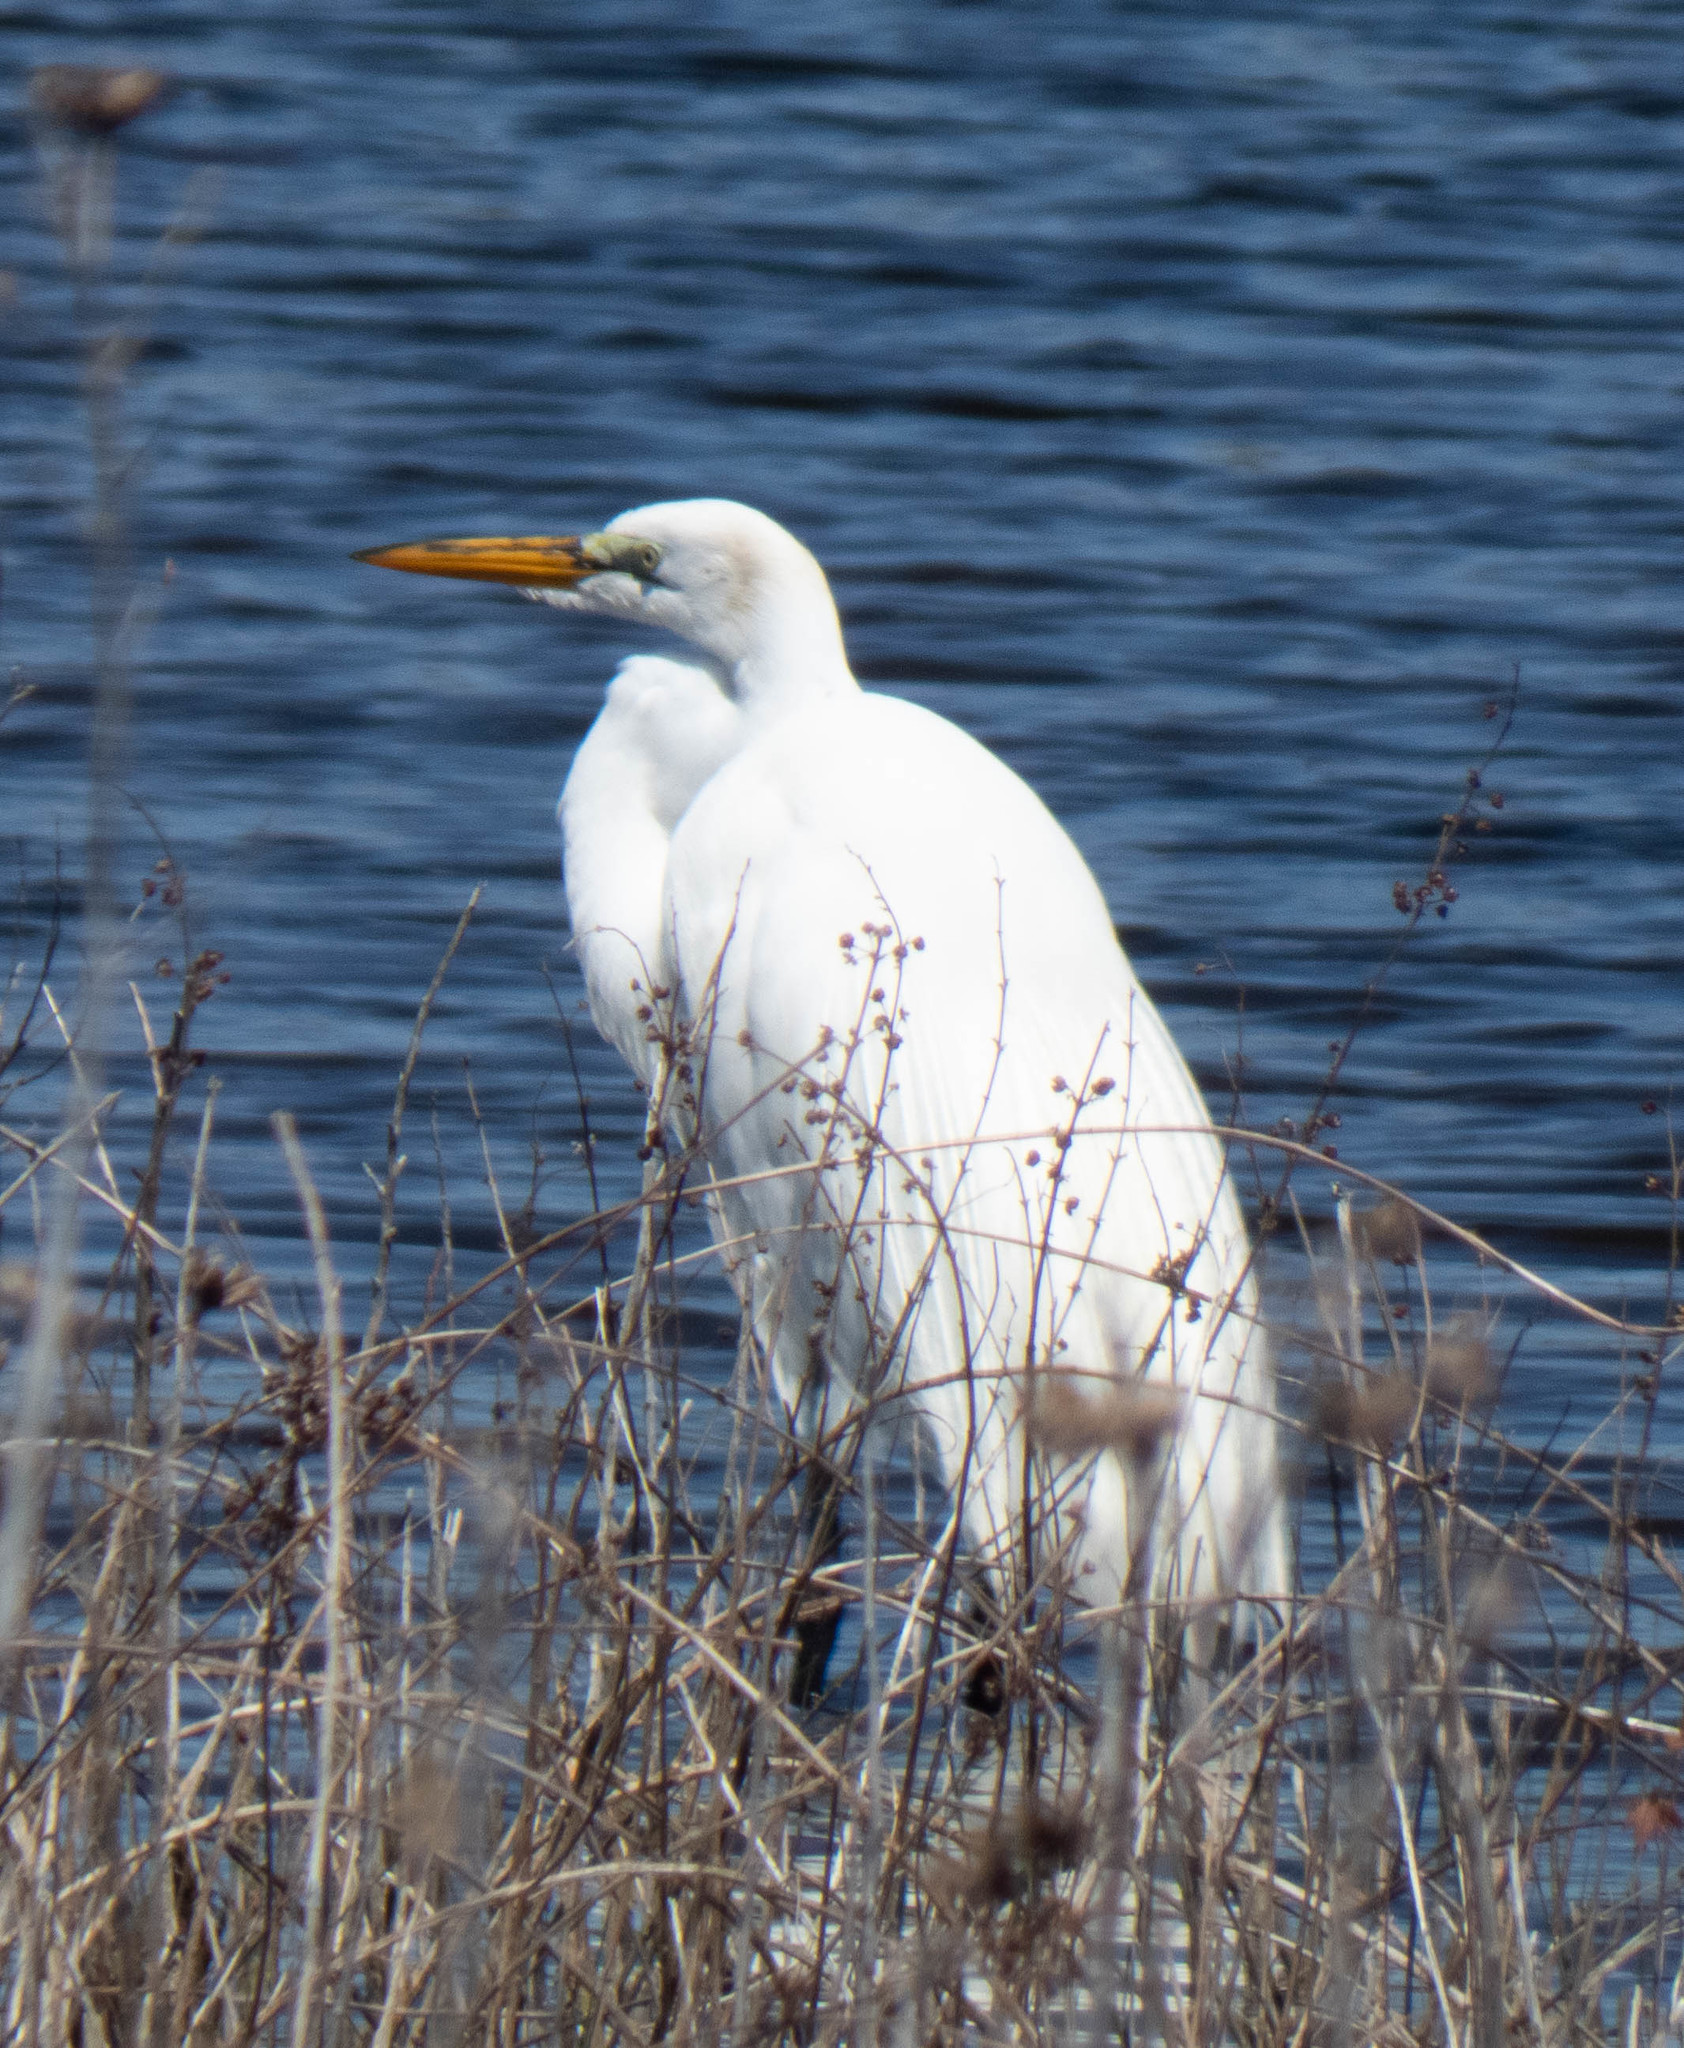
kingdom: Animalia
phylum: Chordata
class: Aves
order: Pelecaniformes
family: Ardeidae
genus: Ardea
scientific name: Ardea alba
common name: Great egret
